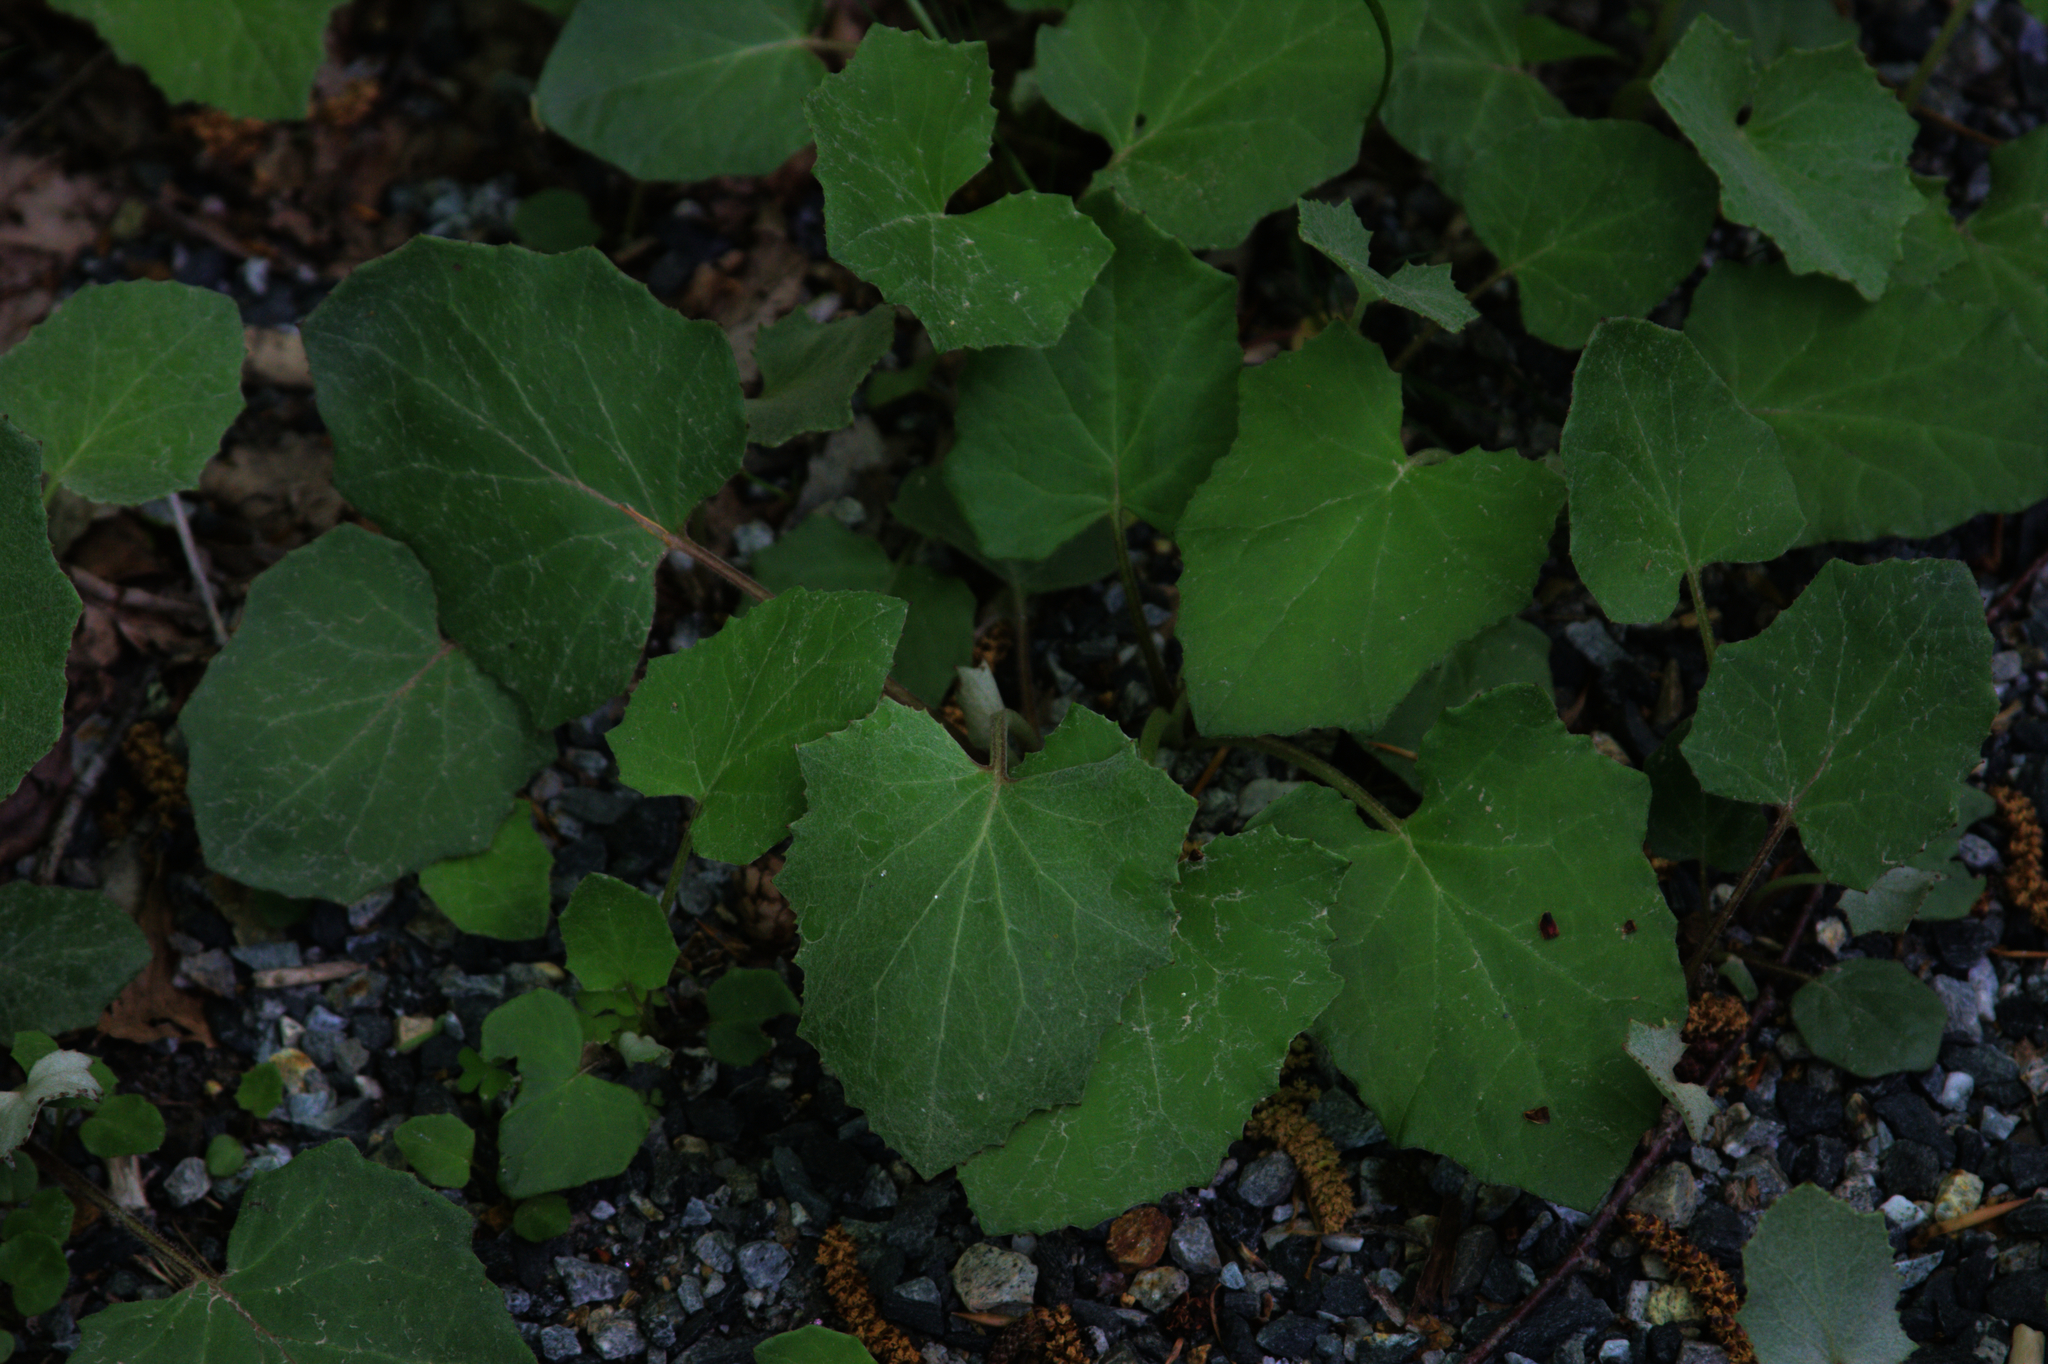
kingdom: Plantae
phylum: Tracheophyta
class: Magnoliopsida
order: Asterales
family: Asteraceae
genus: Tussilago
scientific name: Tussilago farfara
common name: Coltsfoot
